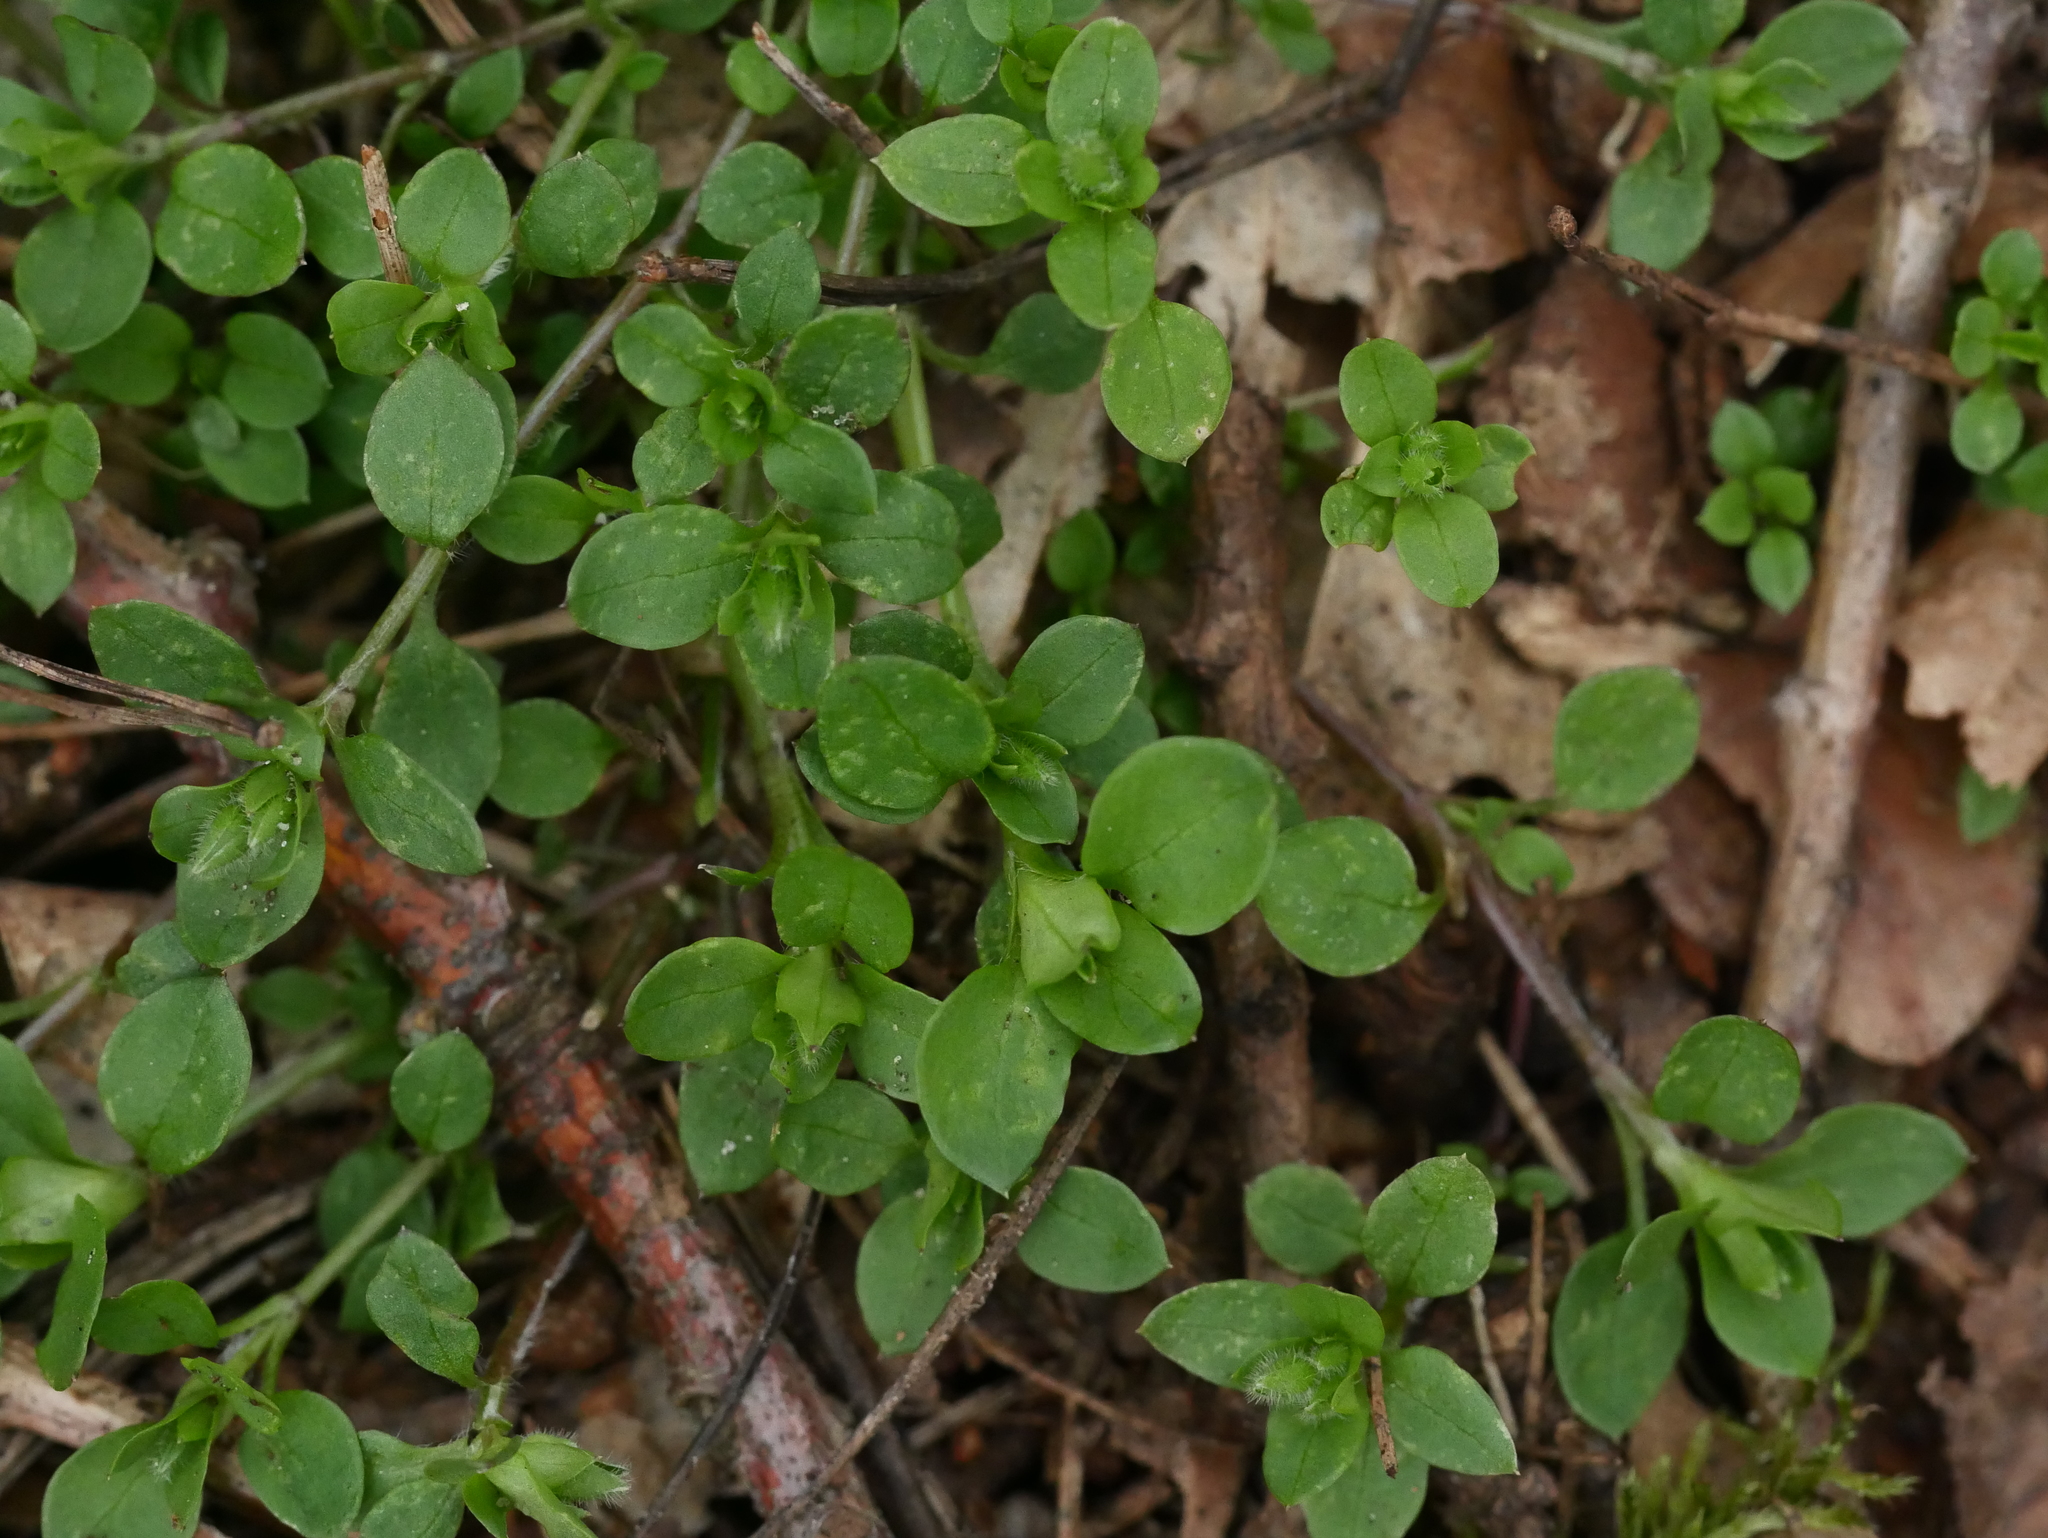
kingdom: Plantae
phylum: Tracheophyta
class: Magnoliopsida
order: Caryophyllales
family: Caryophyllaceae
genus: Stellaria
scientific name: Stellaria media
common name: Common chickweed
